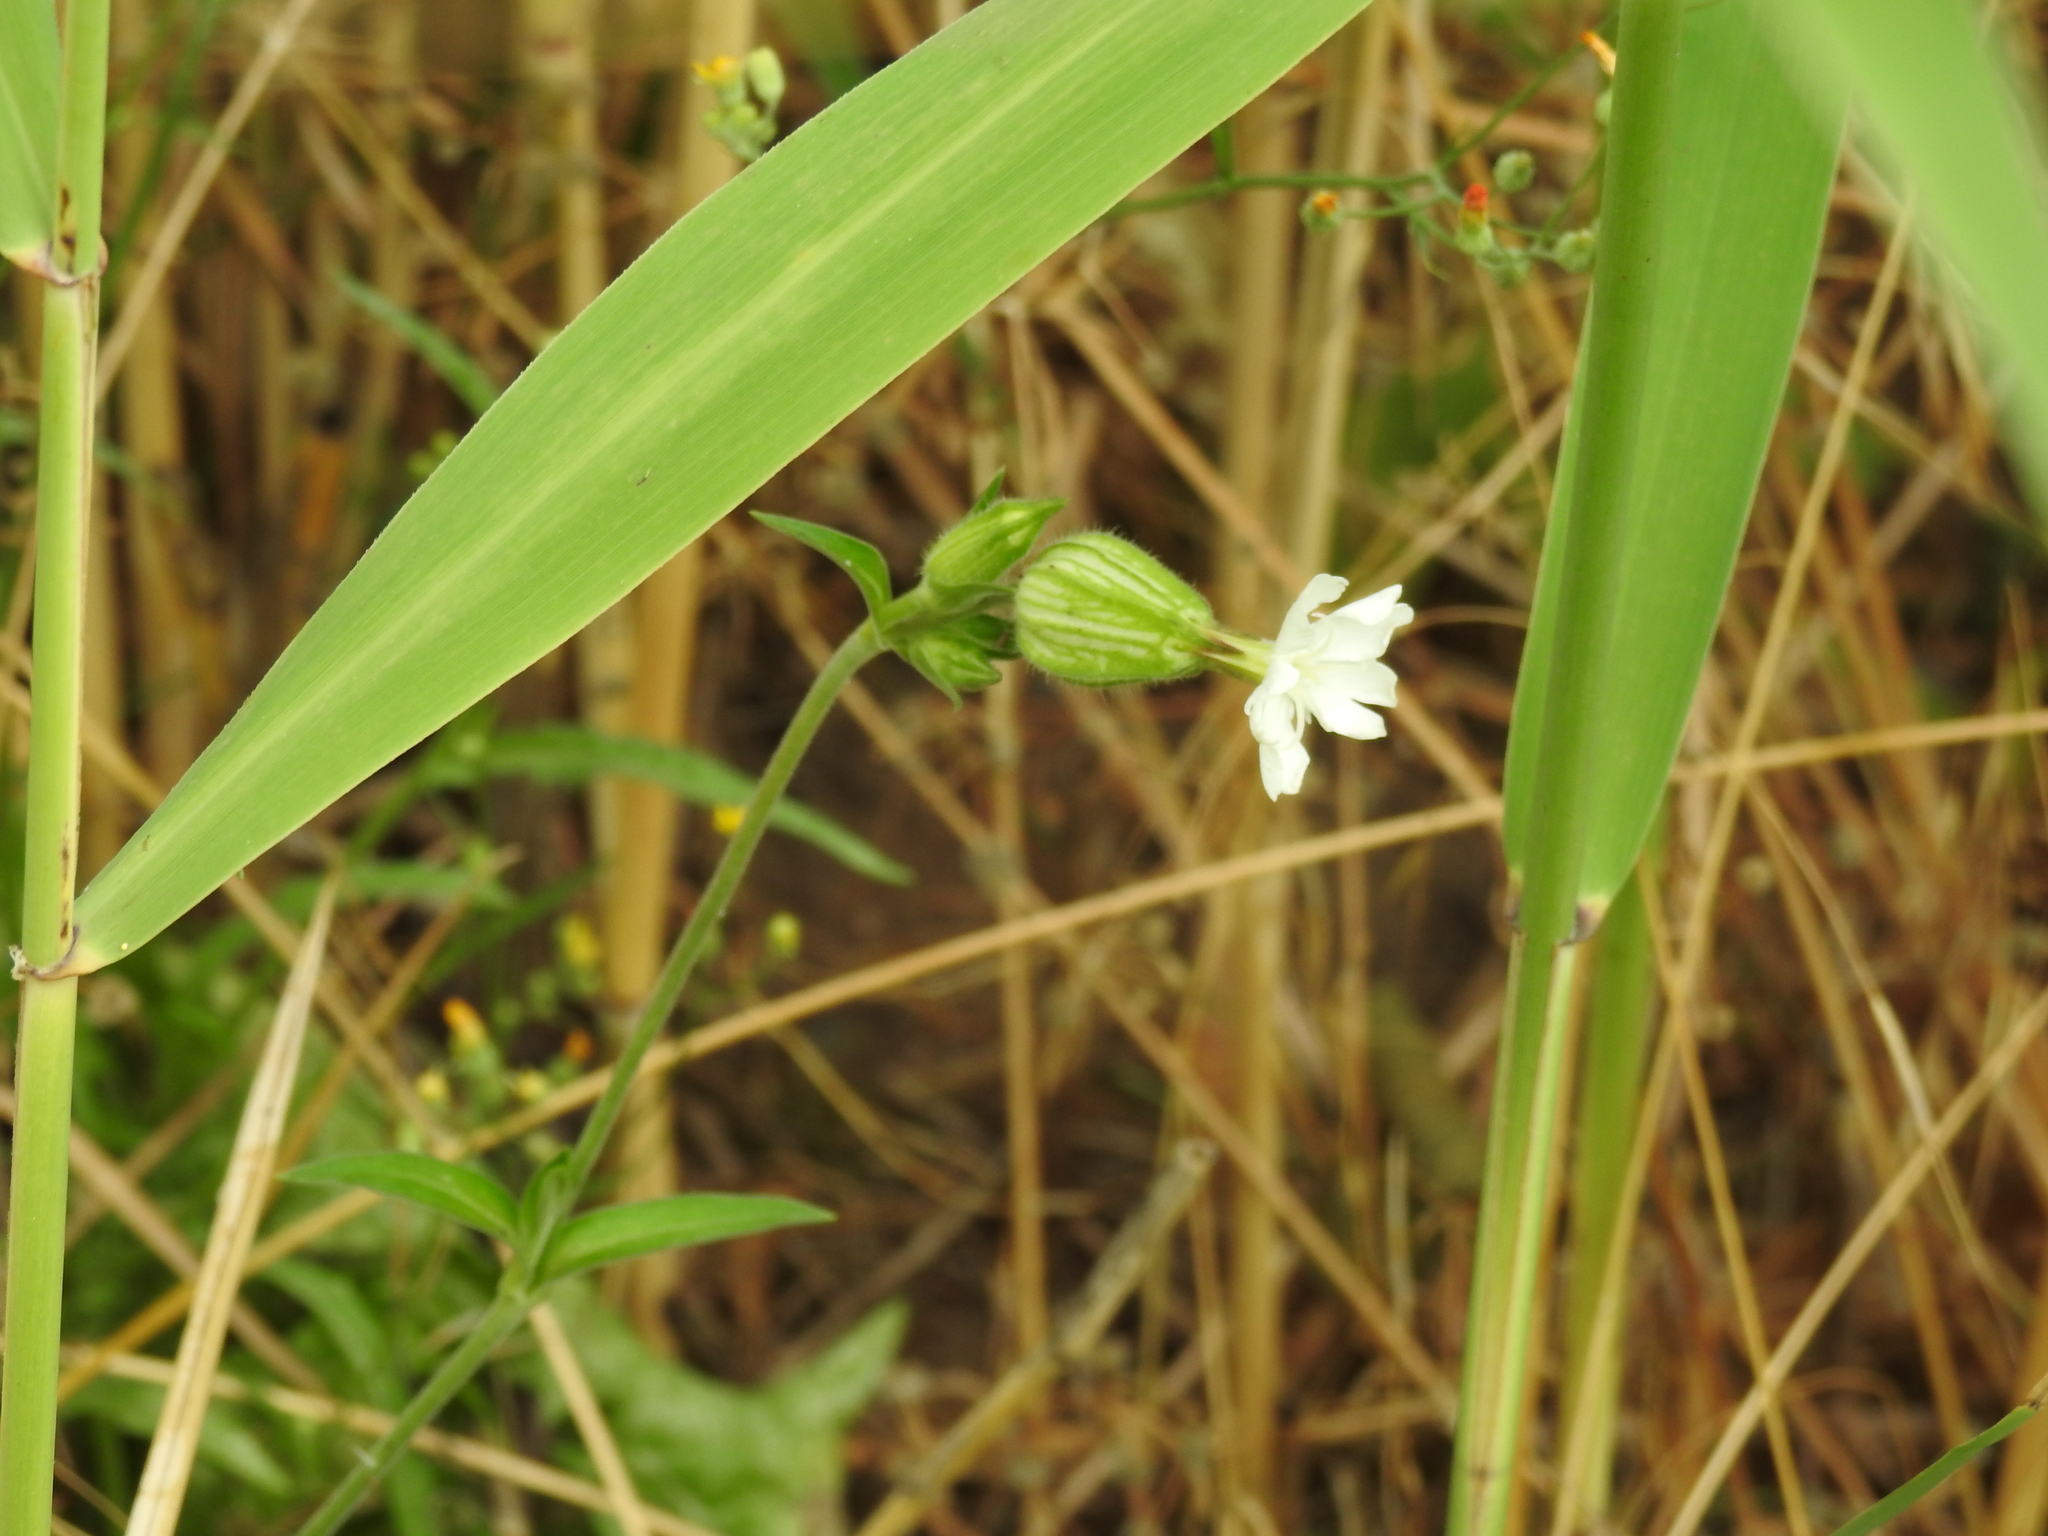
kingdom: Plantae
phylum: Tracheophyta
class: Magnoliopsida
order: Caryophyllales
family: Caryophyllaceae
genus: Silene
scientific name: Silene latifolia
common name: White campion
